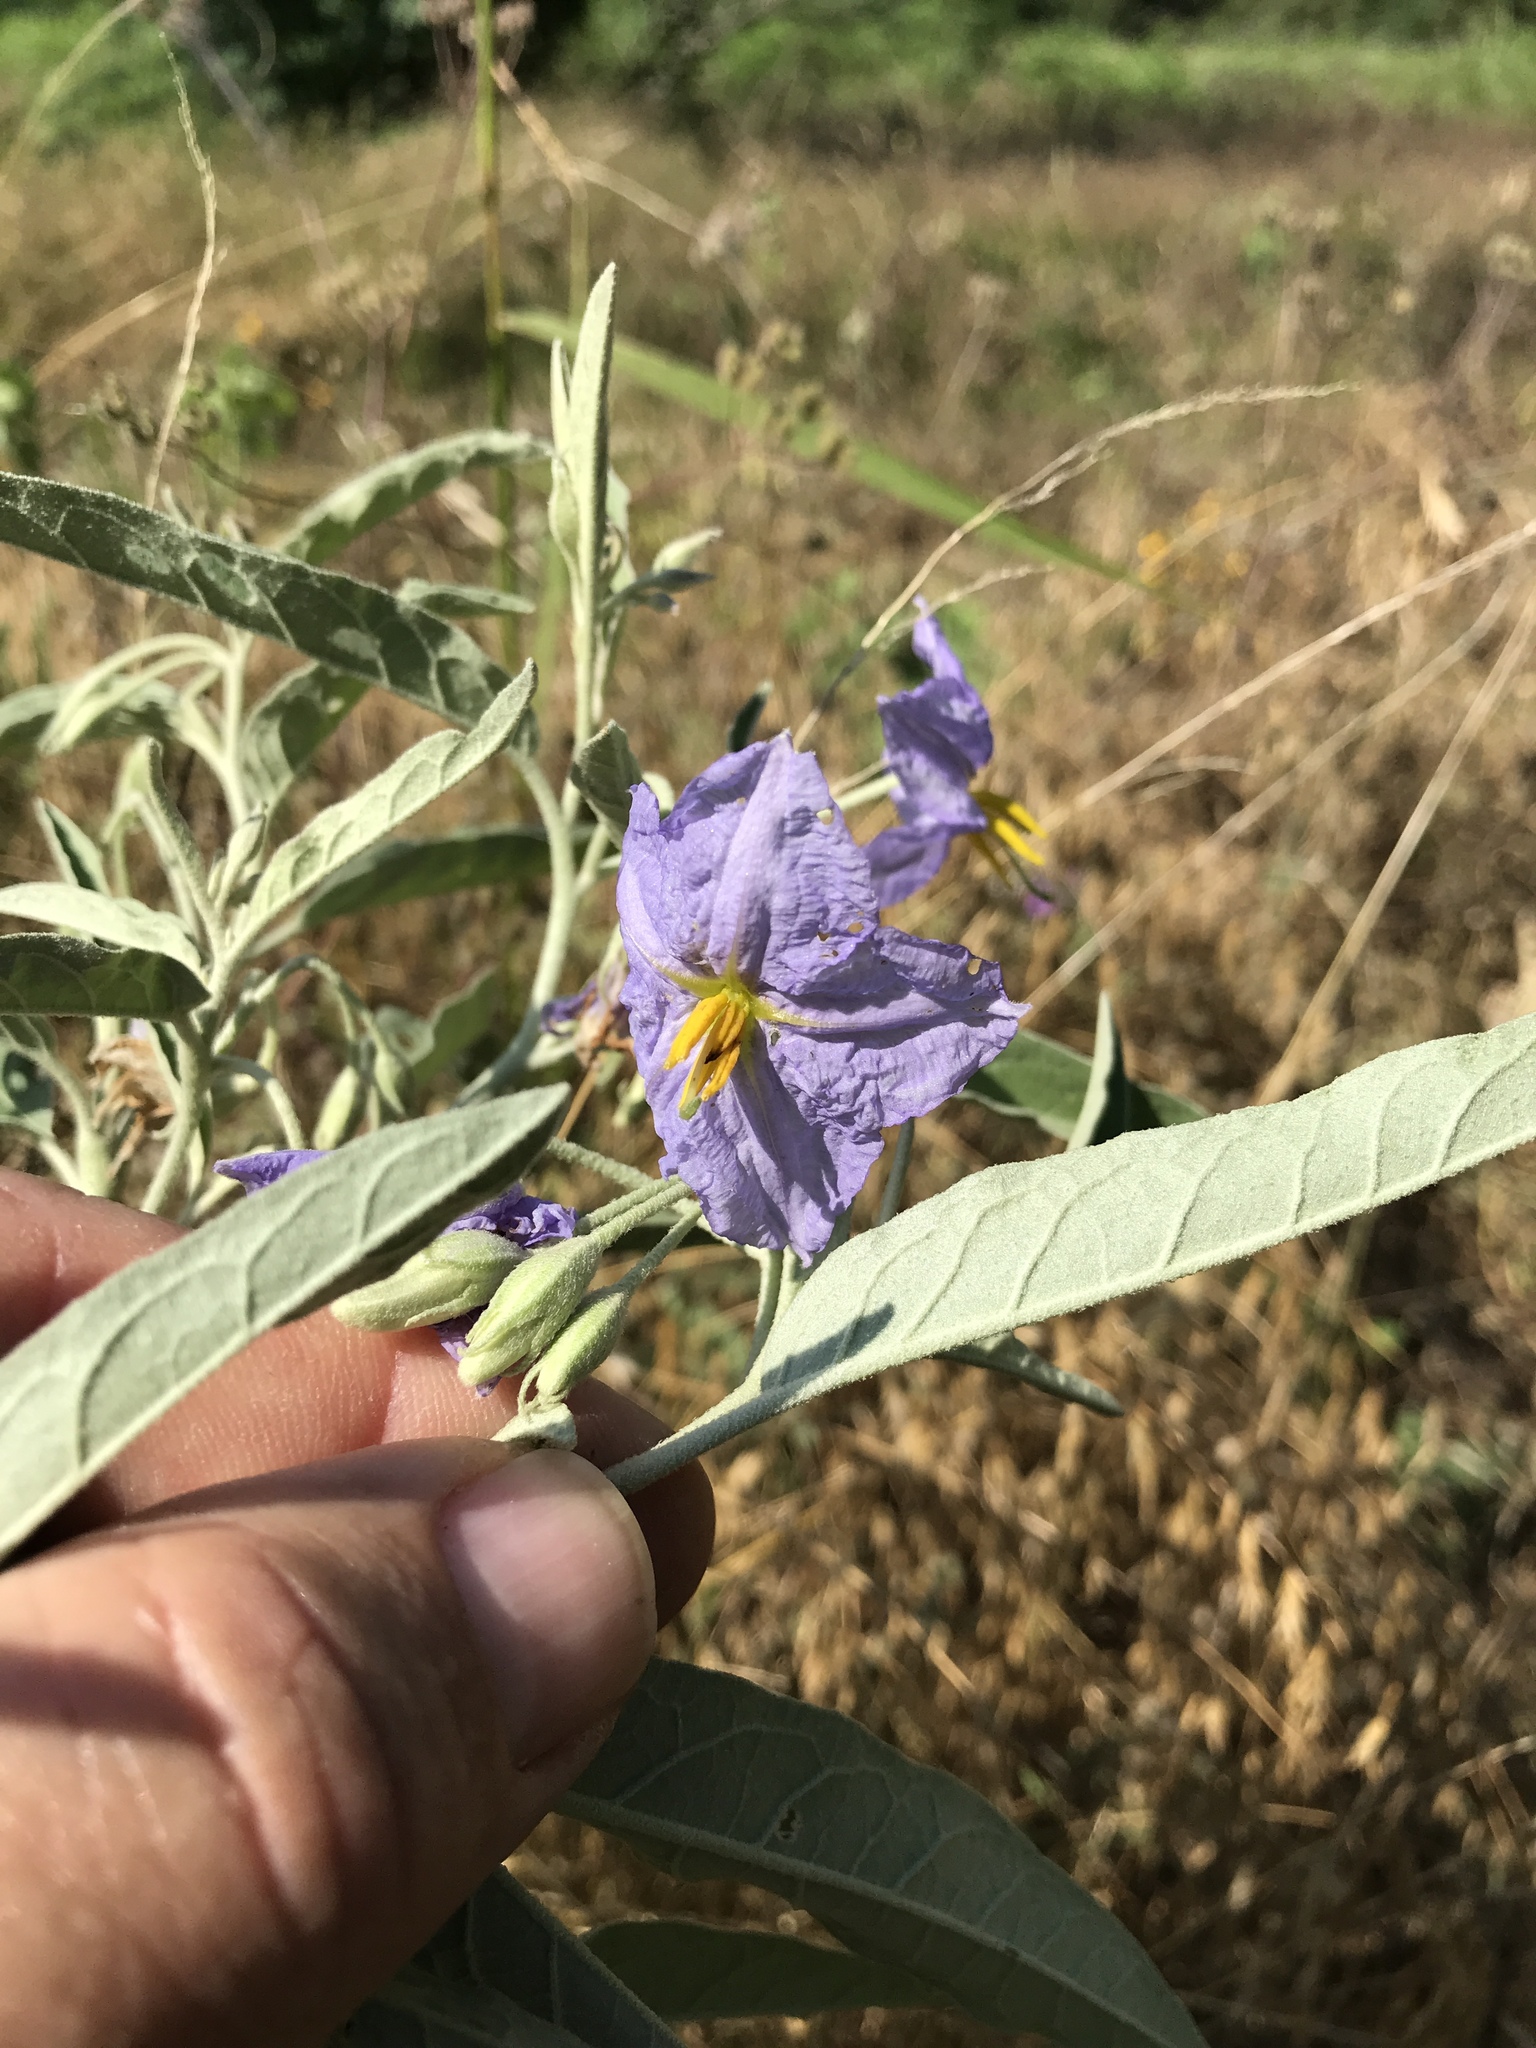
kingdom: Plantae
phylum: Tracheophyta
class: Magnoliopsida
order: Solanales
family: Solanaceae
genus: Solanum
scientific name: Solanum elaeagnifolium
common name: Silverleaf nightshade
